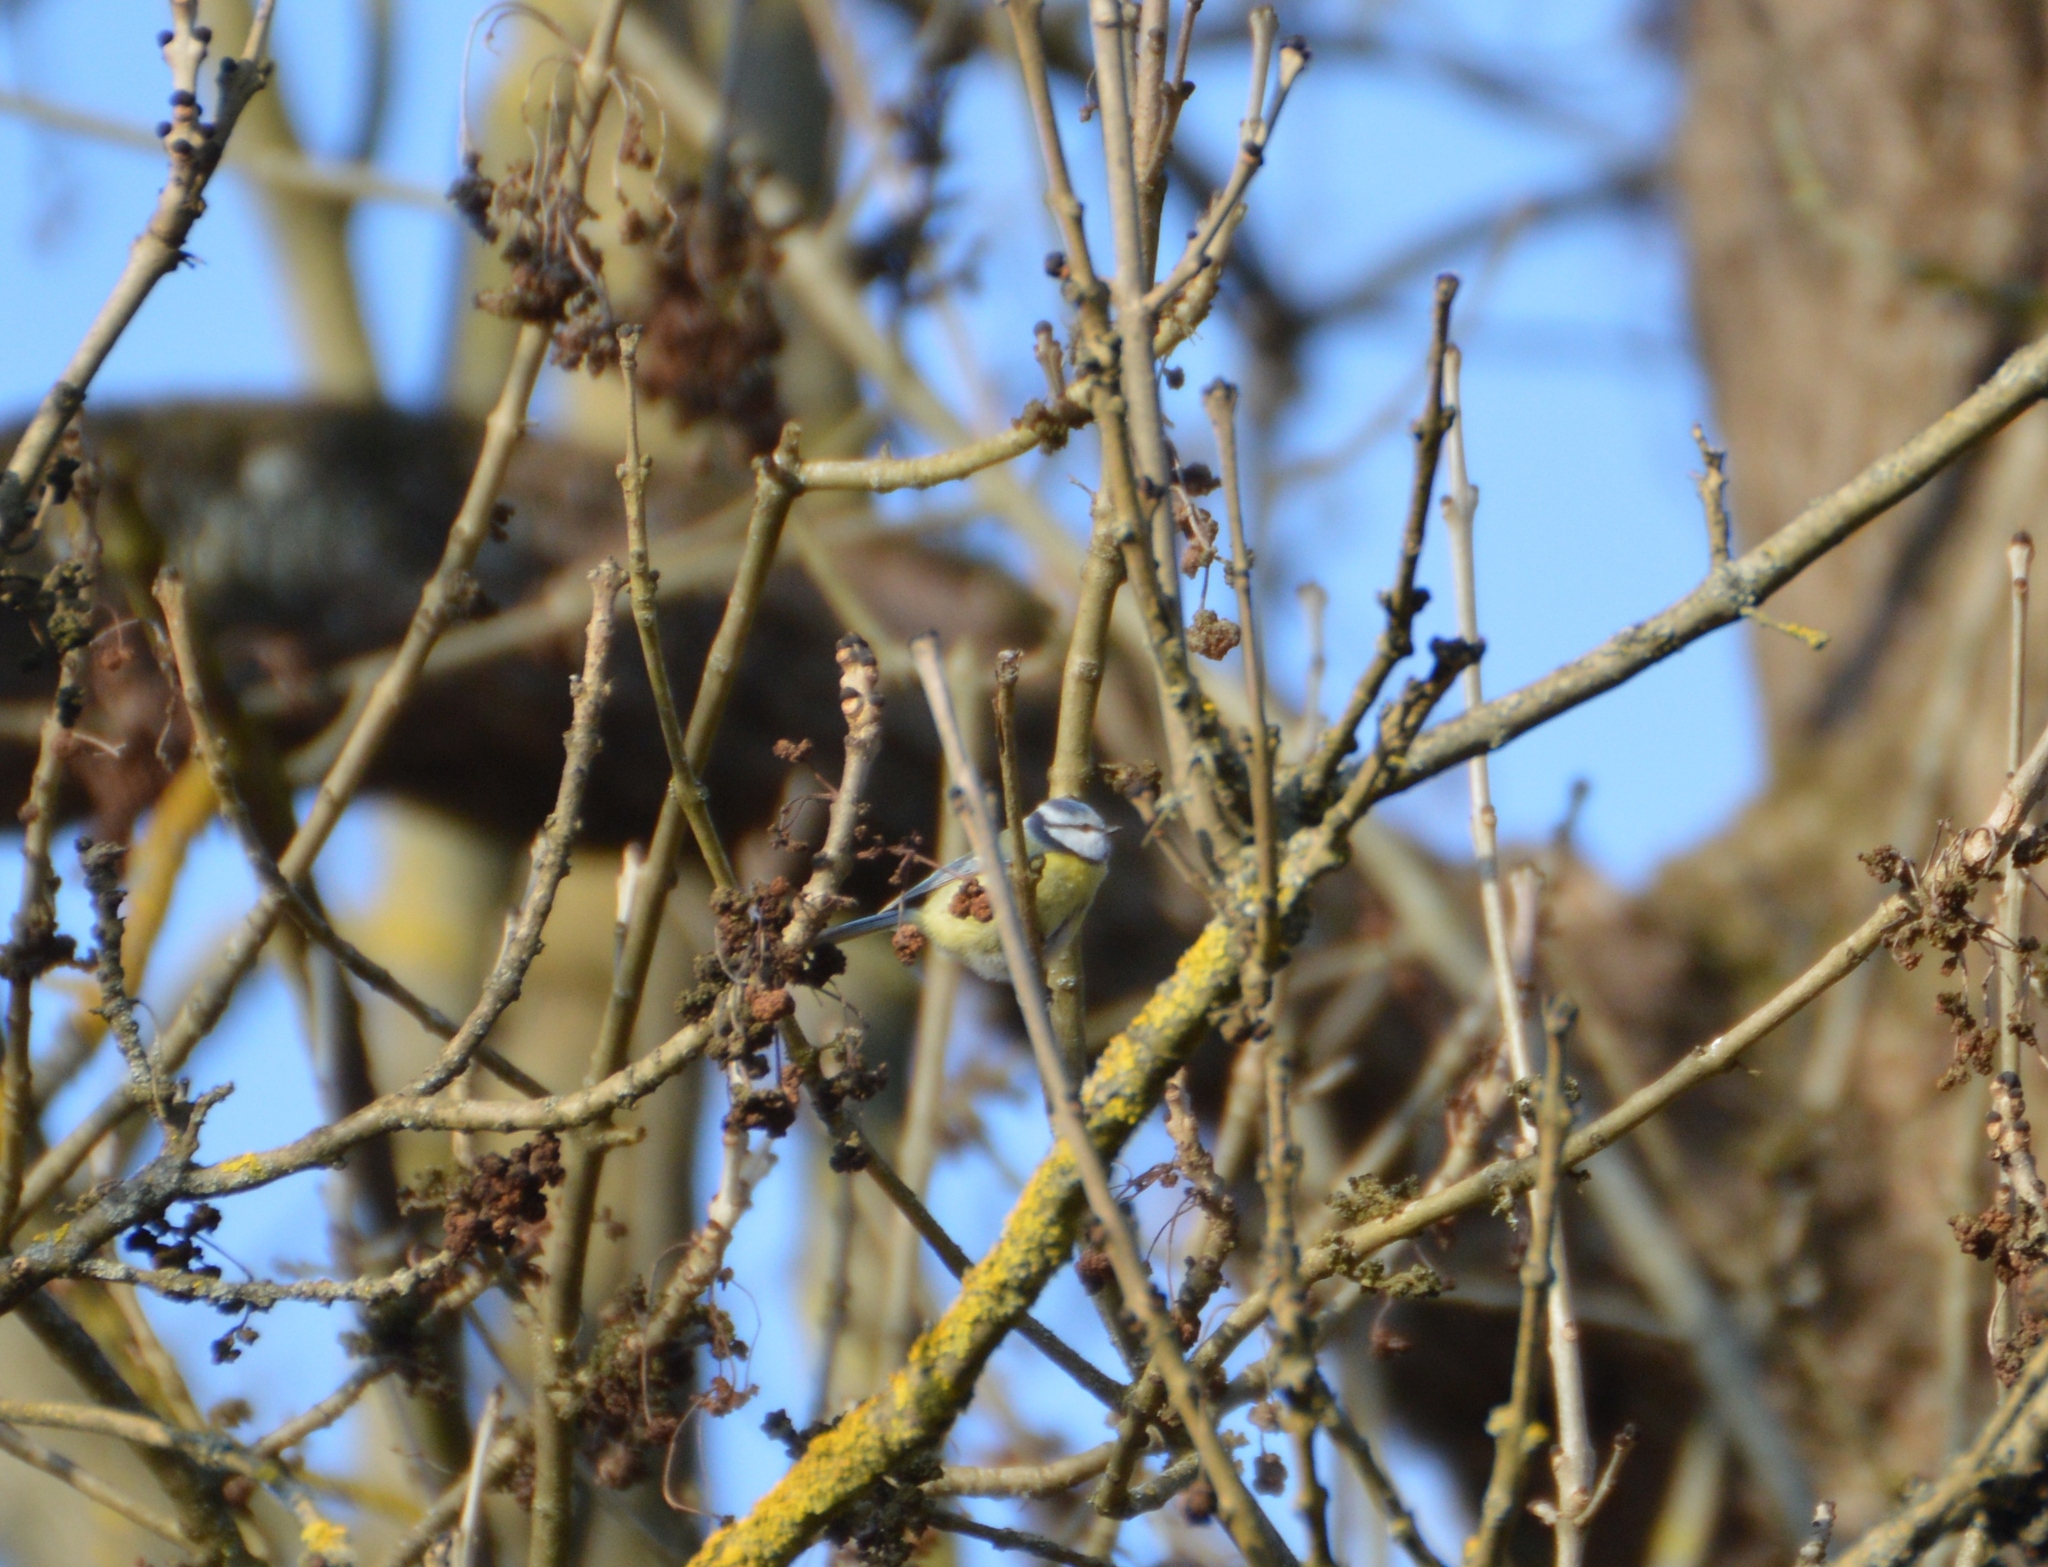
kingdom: Animalia
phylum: Chordata
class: Aves
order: Passeriformes
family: Paridae
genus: Cyanistes
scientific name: Cyanistes caeruleus
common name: Eurasian blue tit
